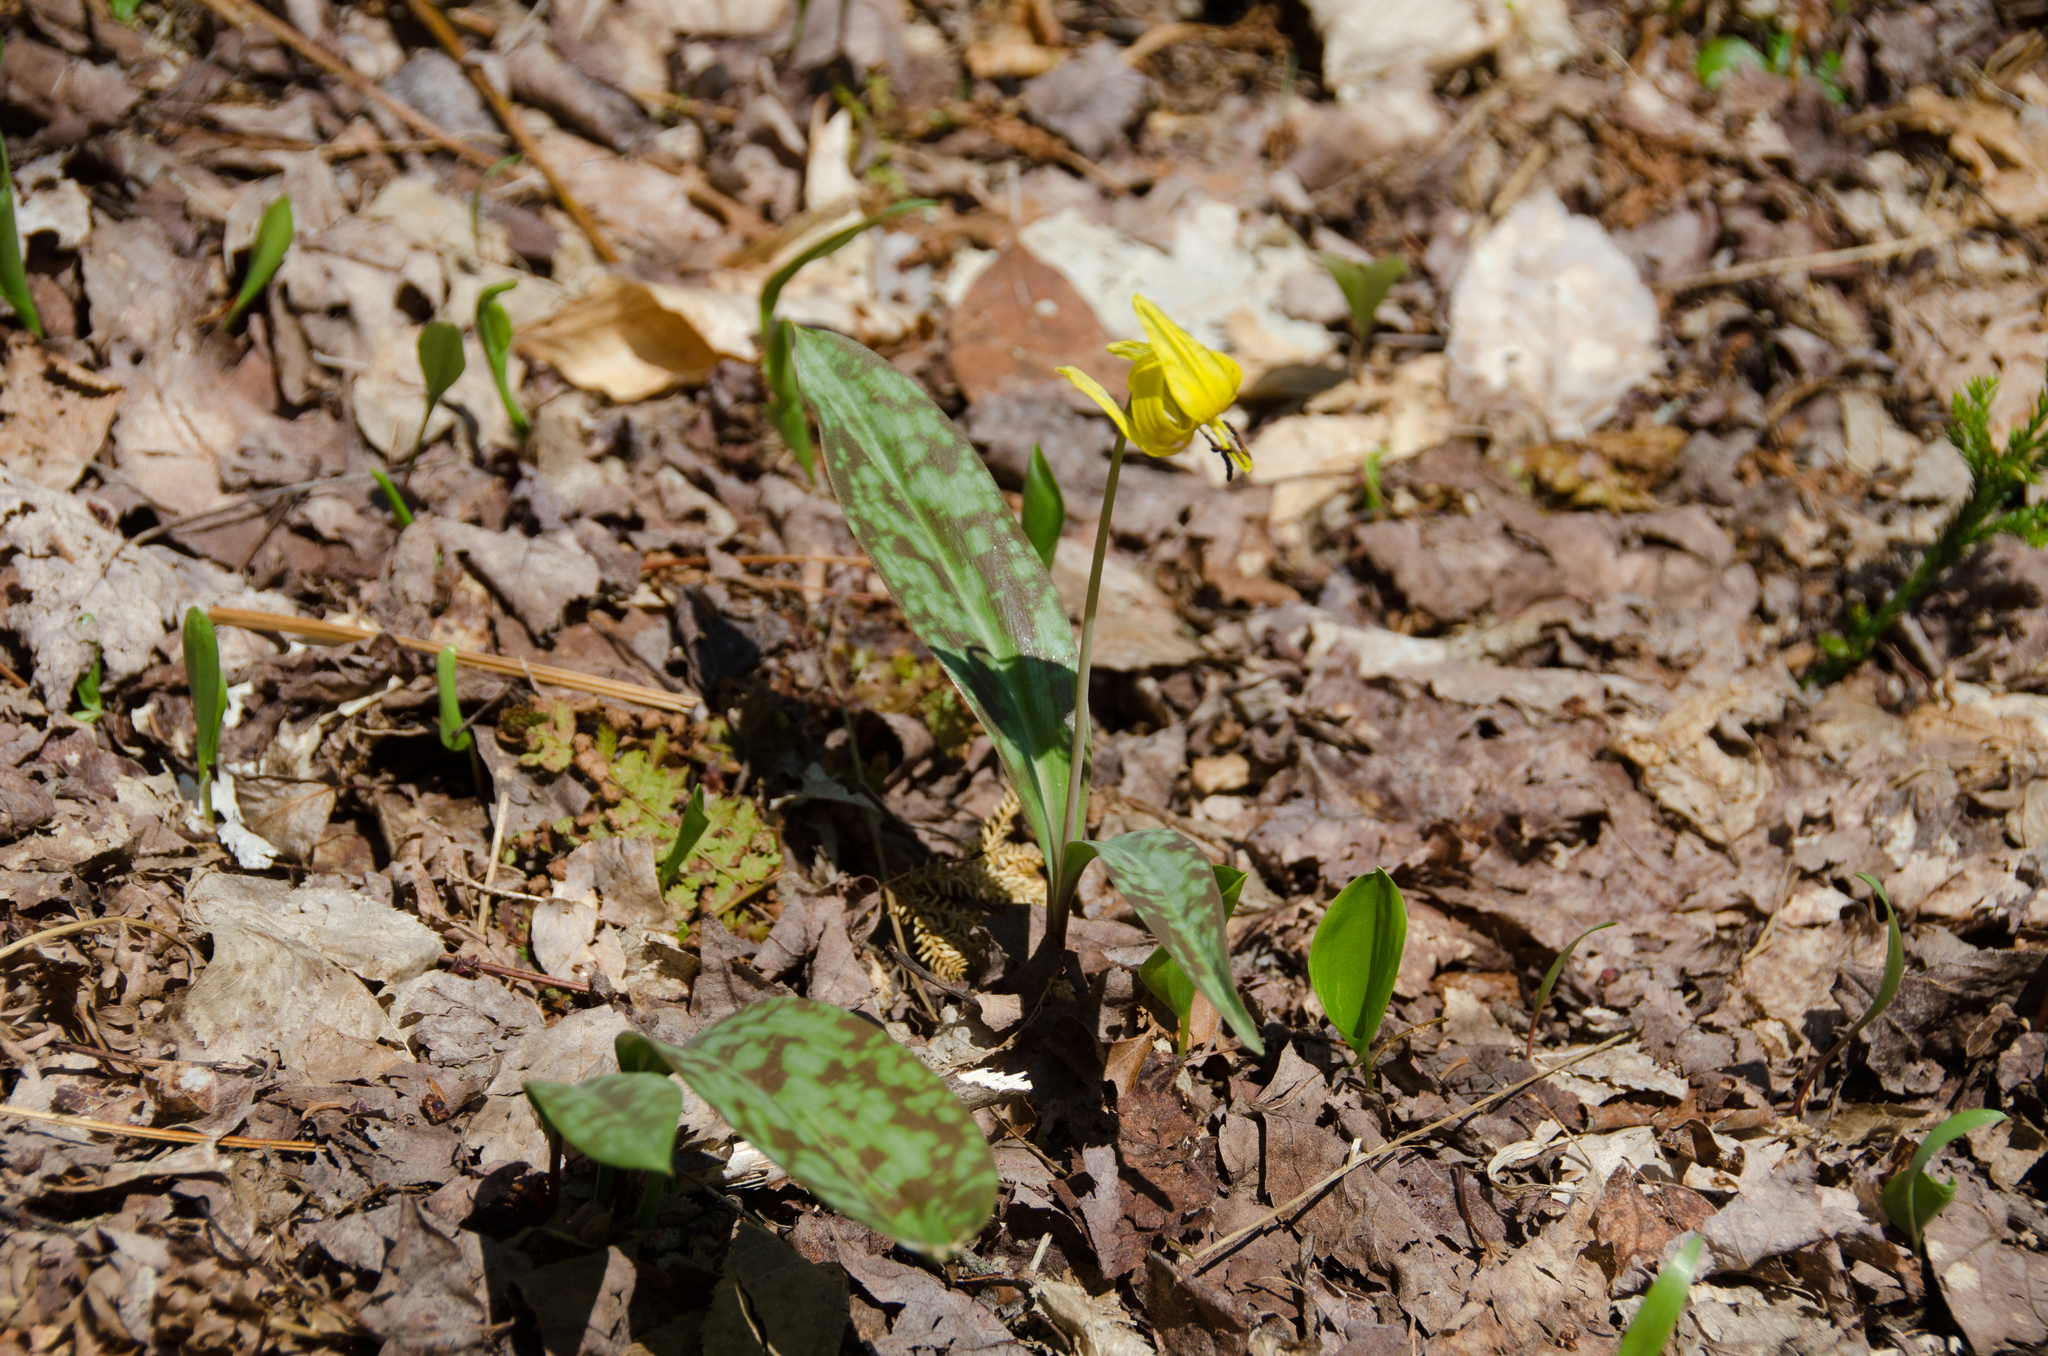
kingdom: Plantae
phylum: Tracheophyta
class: Liliopsida
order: Liliales
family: Liliaceae
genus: Erythronium
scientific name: Erythronium americanum
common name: Yellow adder's-tongue
